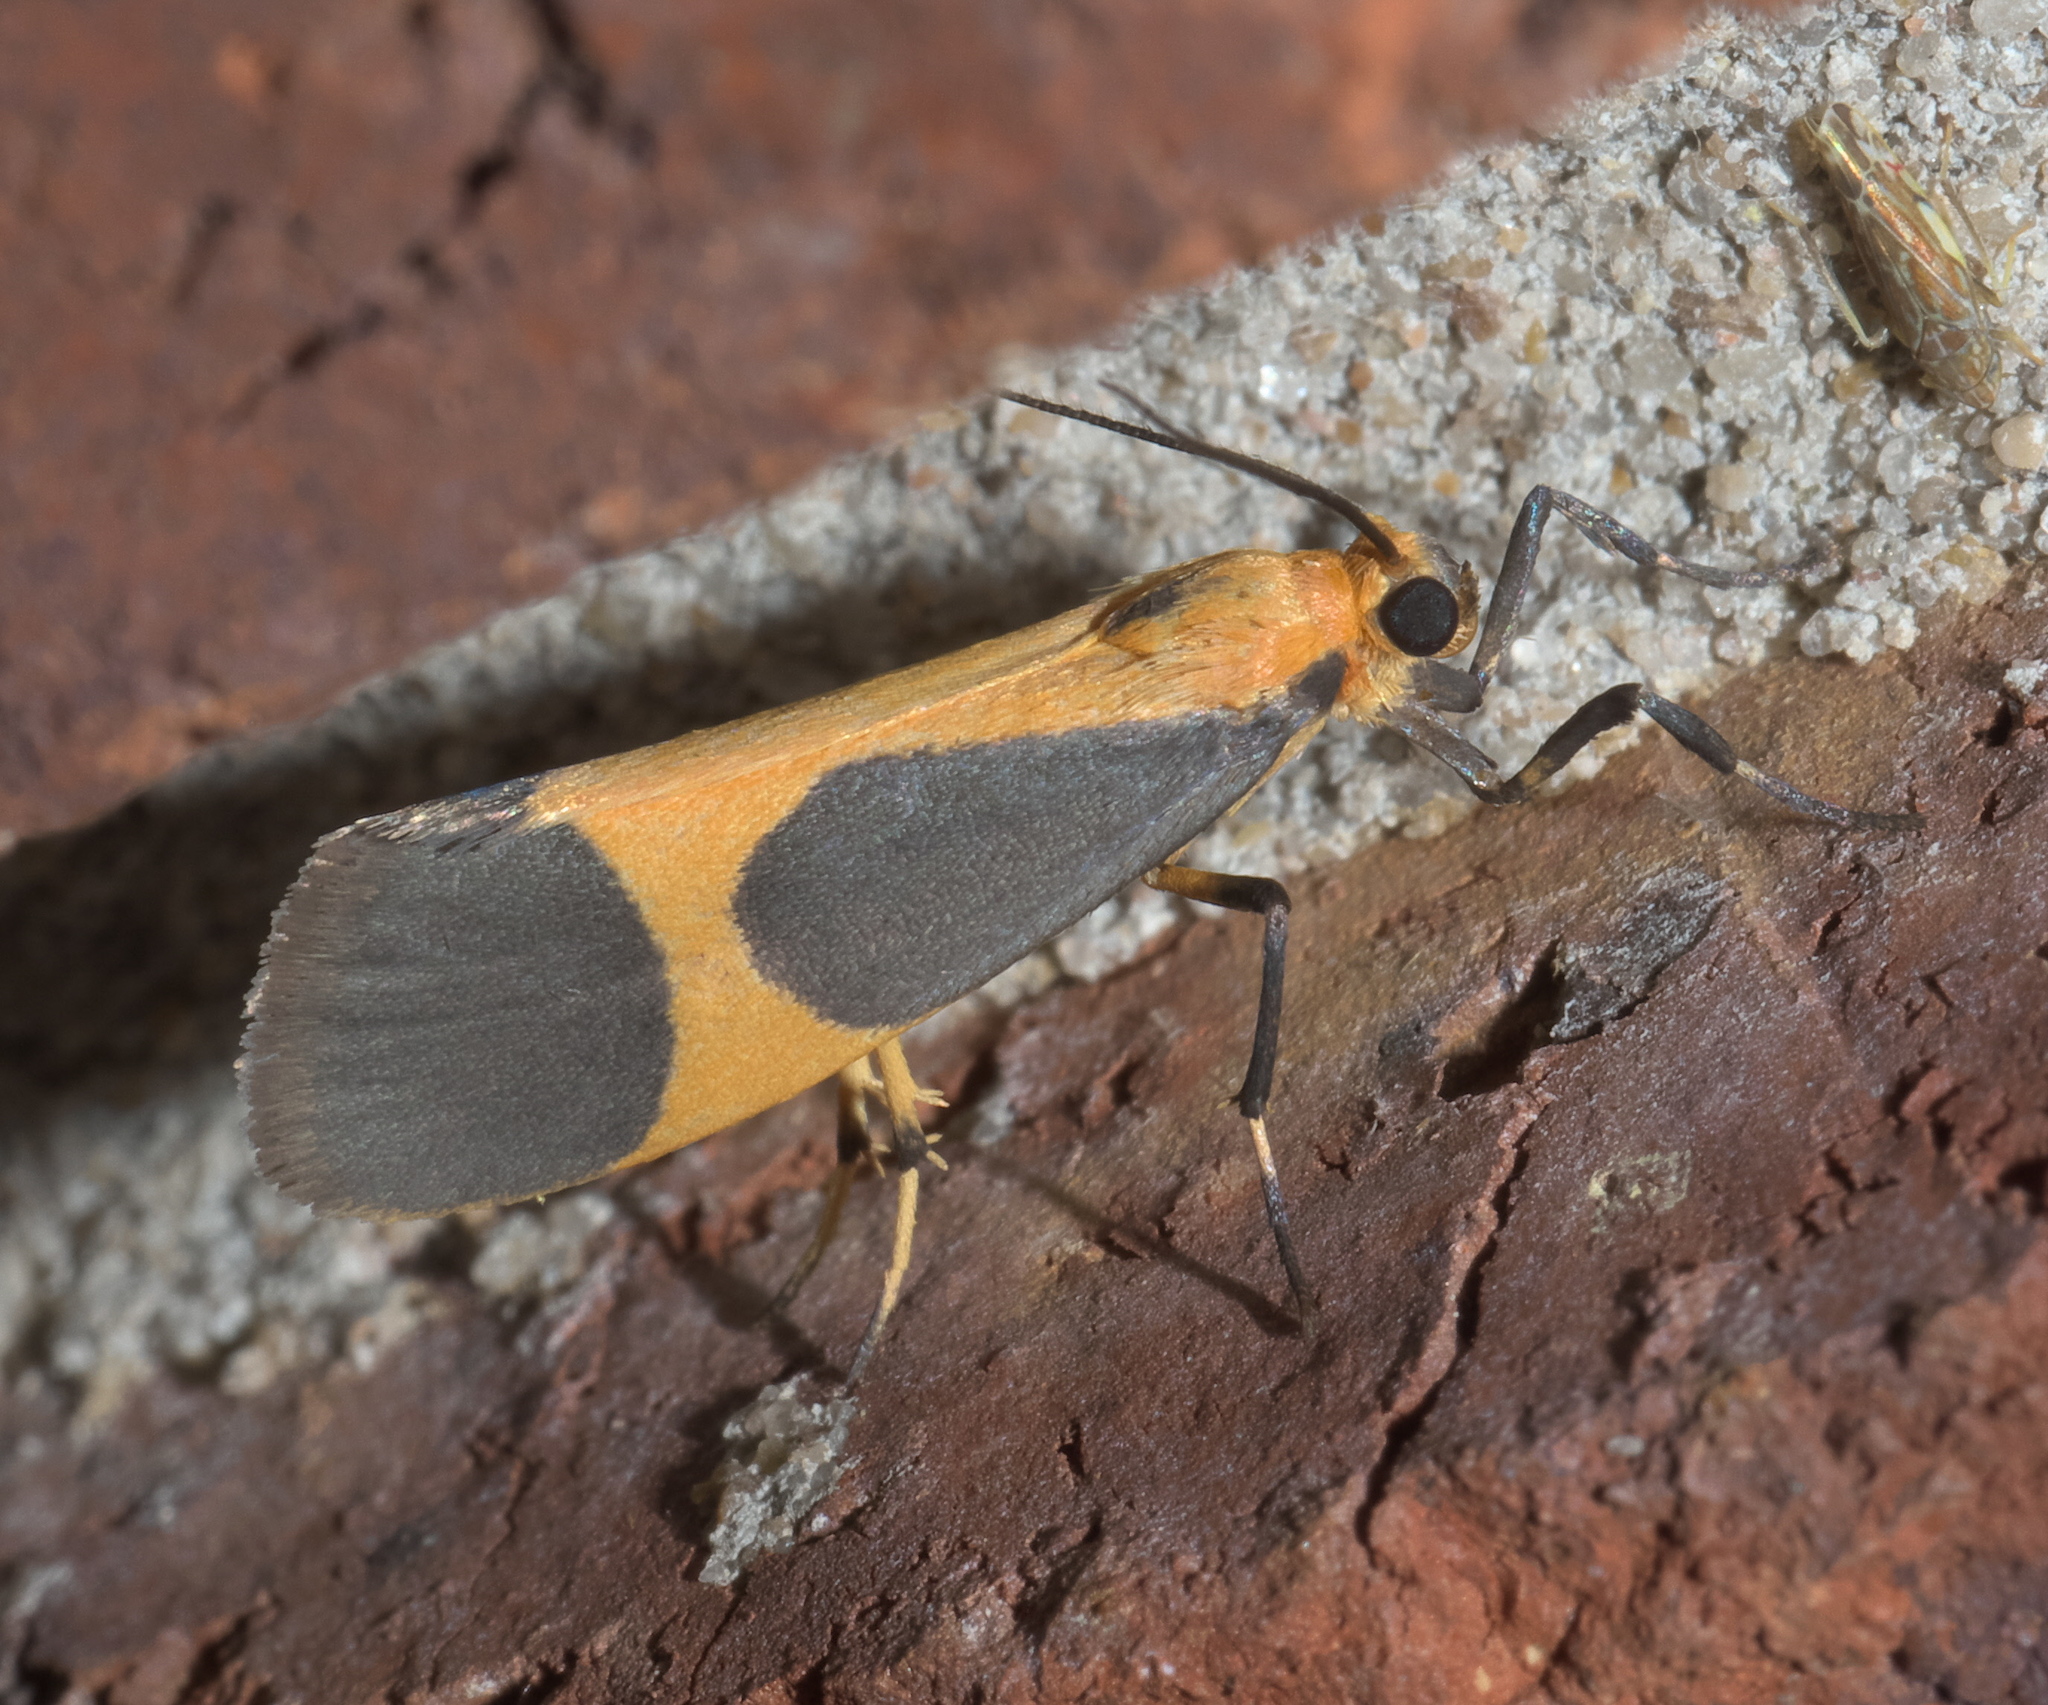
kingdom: Animalia
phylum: Arthropoda
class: Insecta
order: Lepidoptera
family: Erebidae
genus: Cisthene
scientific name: Cisthene picta
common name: Pictured lichen moth
